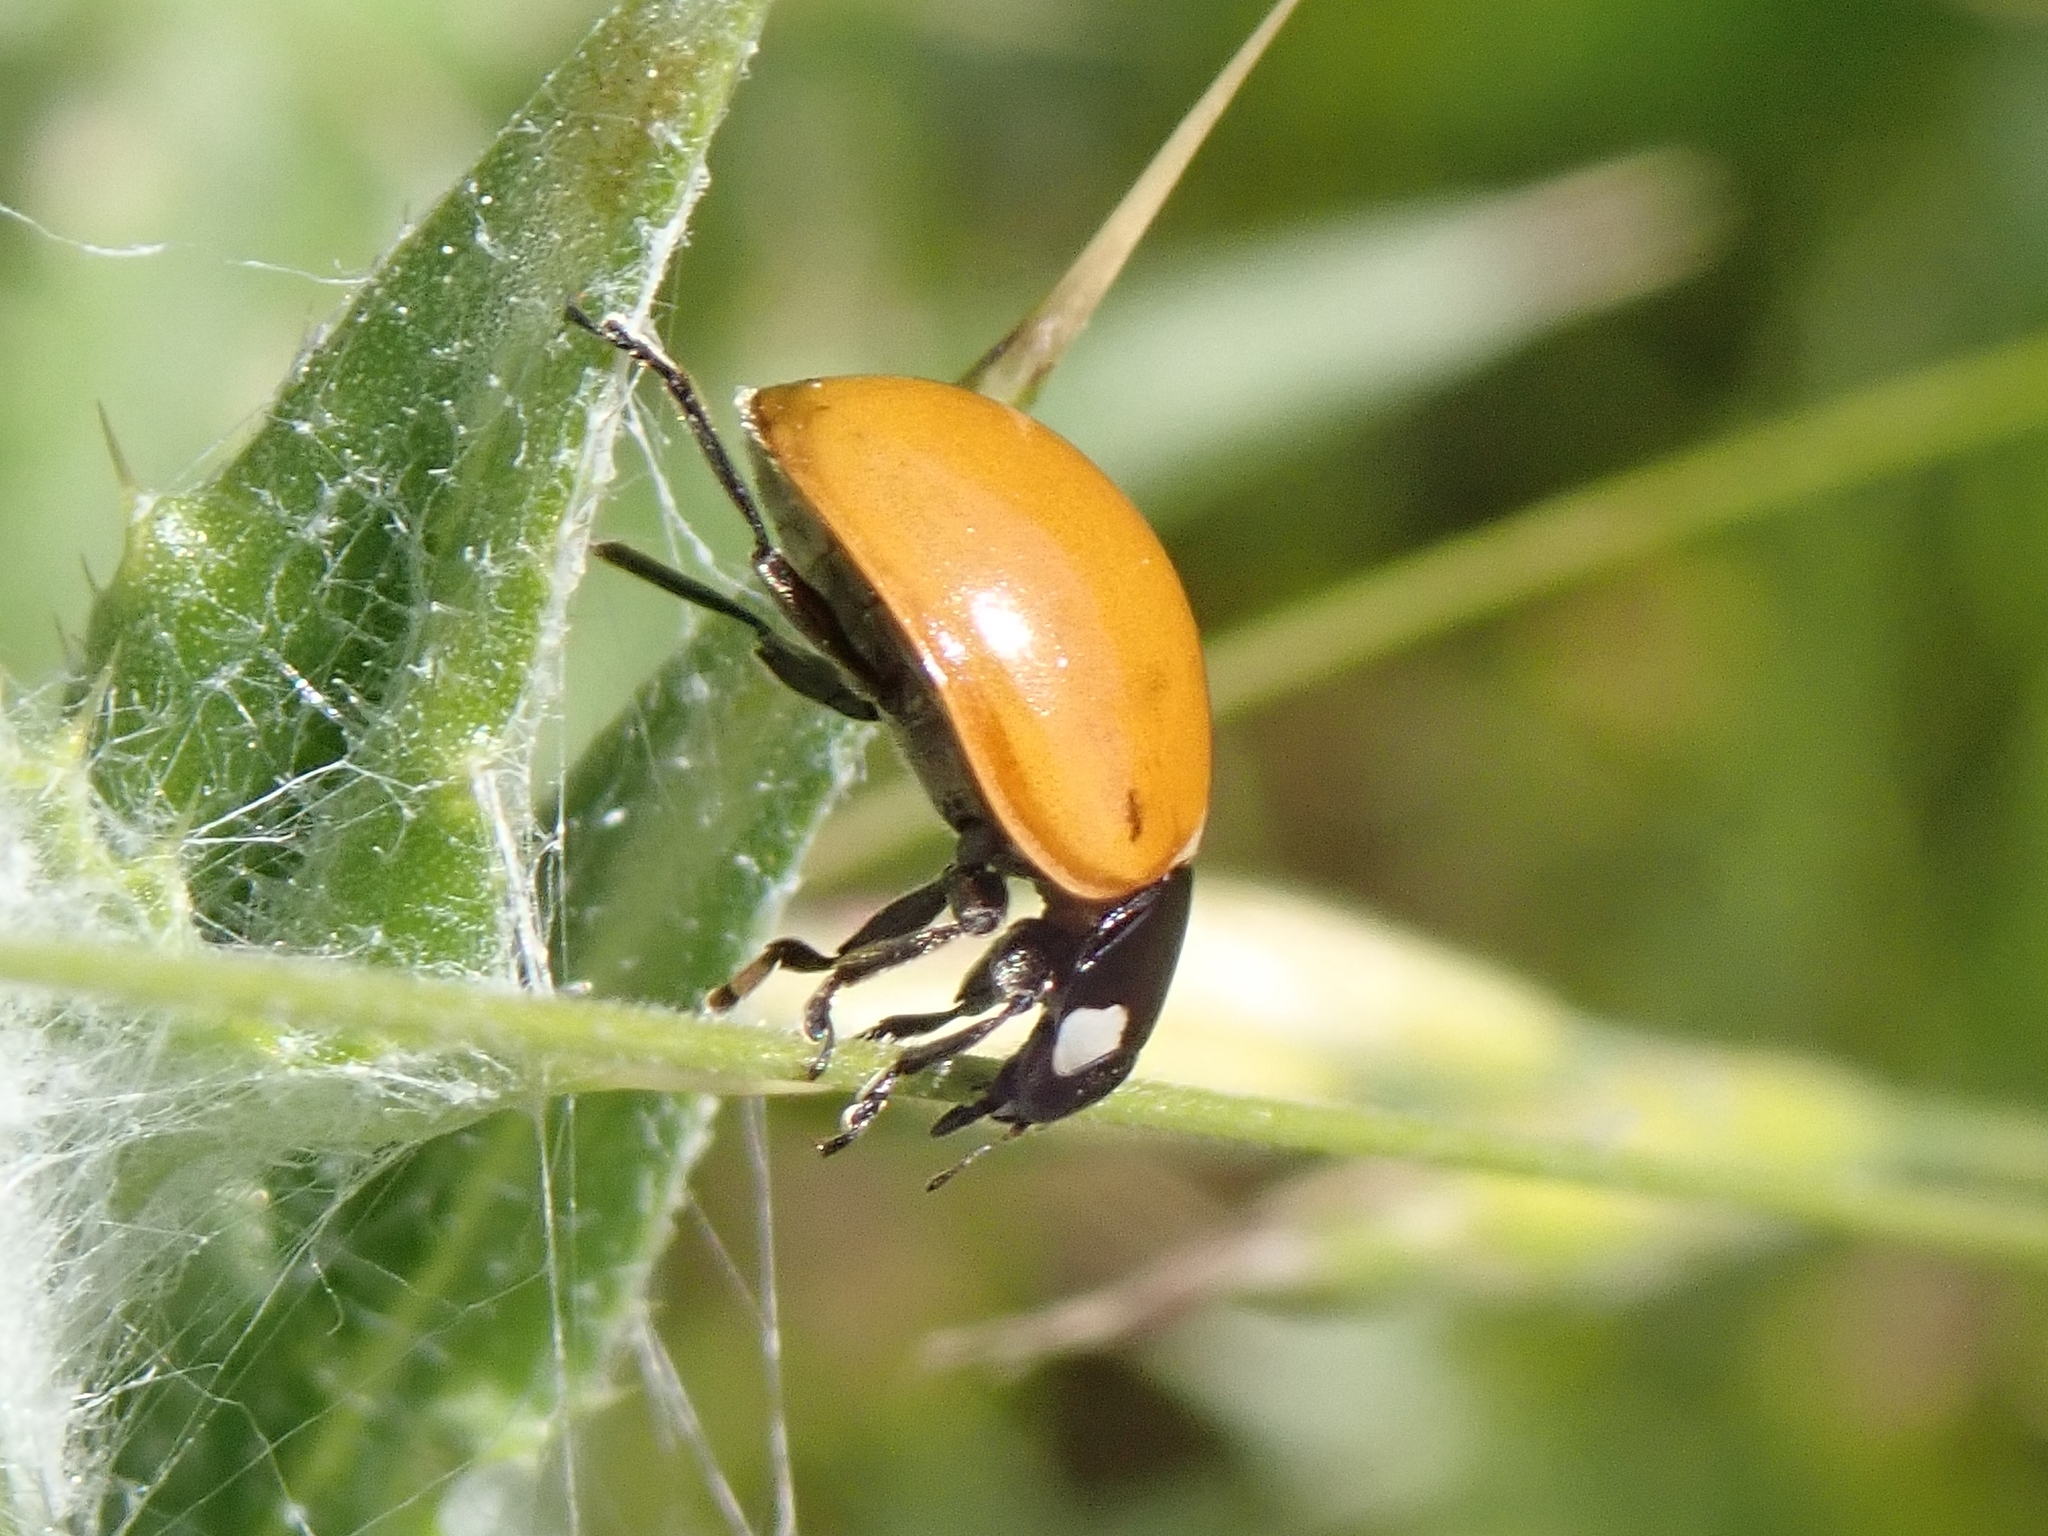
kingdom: Animalia
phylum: Arthropoda
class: Insecta
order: Coleoptera
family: Coccinellidae
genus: Coccinella
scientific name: Coccinella californica
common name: Lady beetle
